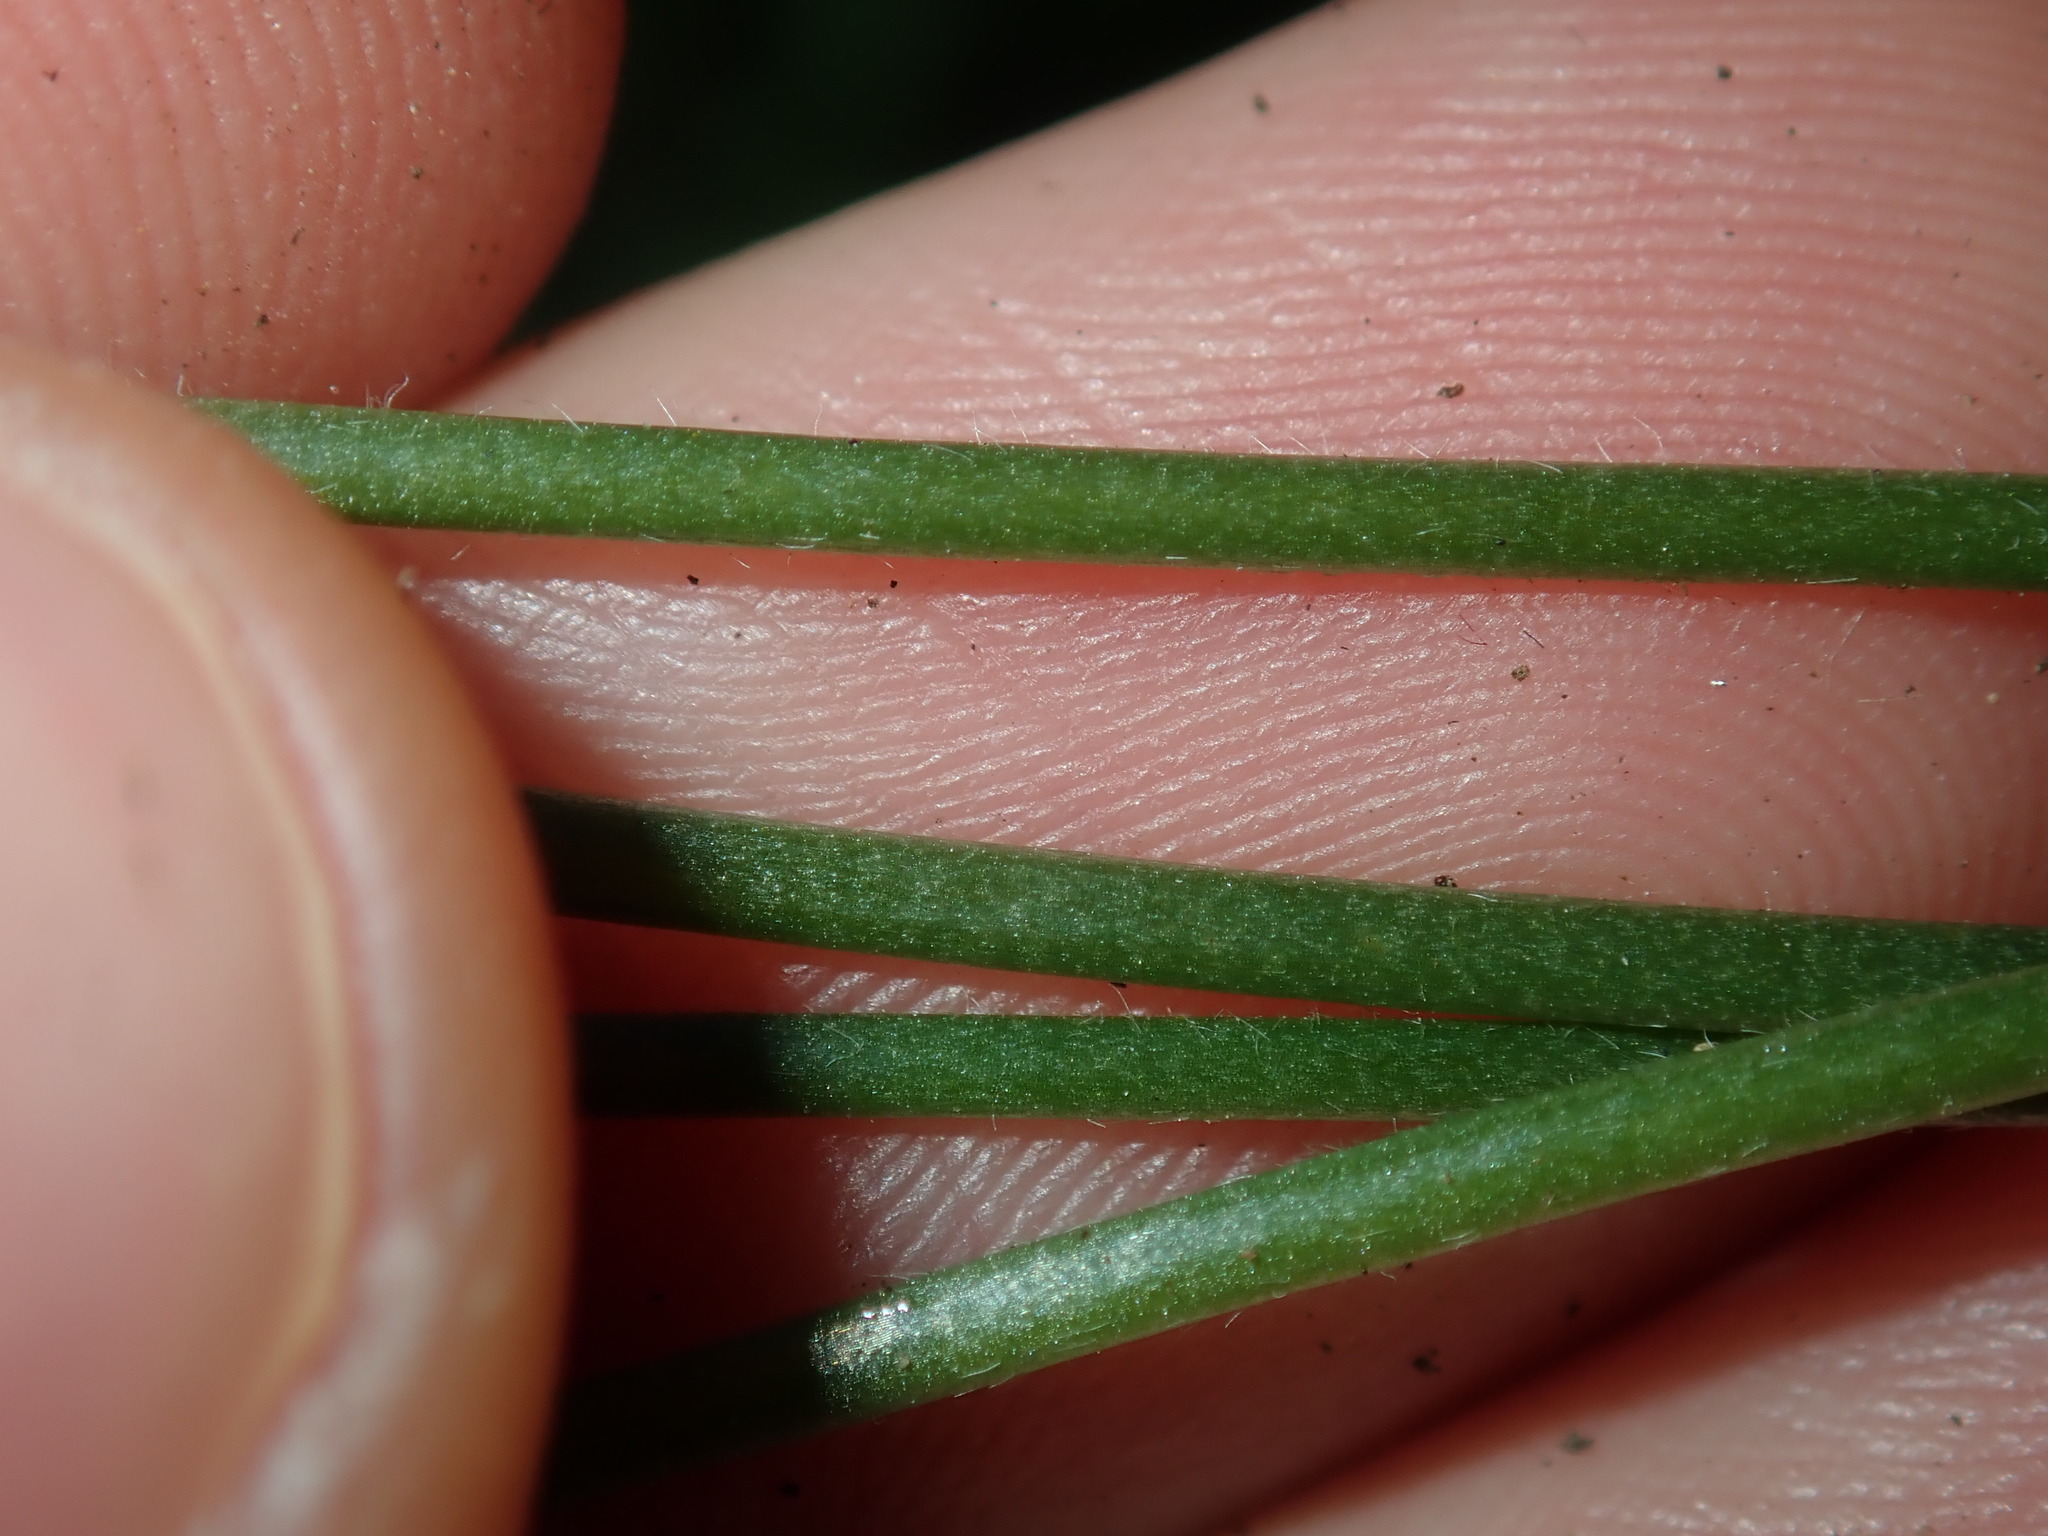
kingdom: Plantae
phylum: Tracheophyta
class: Magnoliopsida
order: Oxalidales
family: Oxalidaceae
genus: Oxalis
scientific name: Oxalis pes-caprae
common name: Bermuda-buttercup
